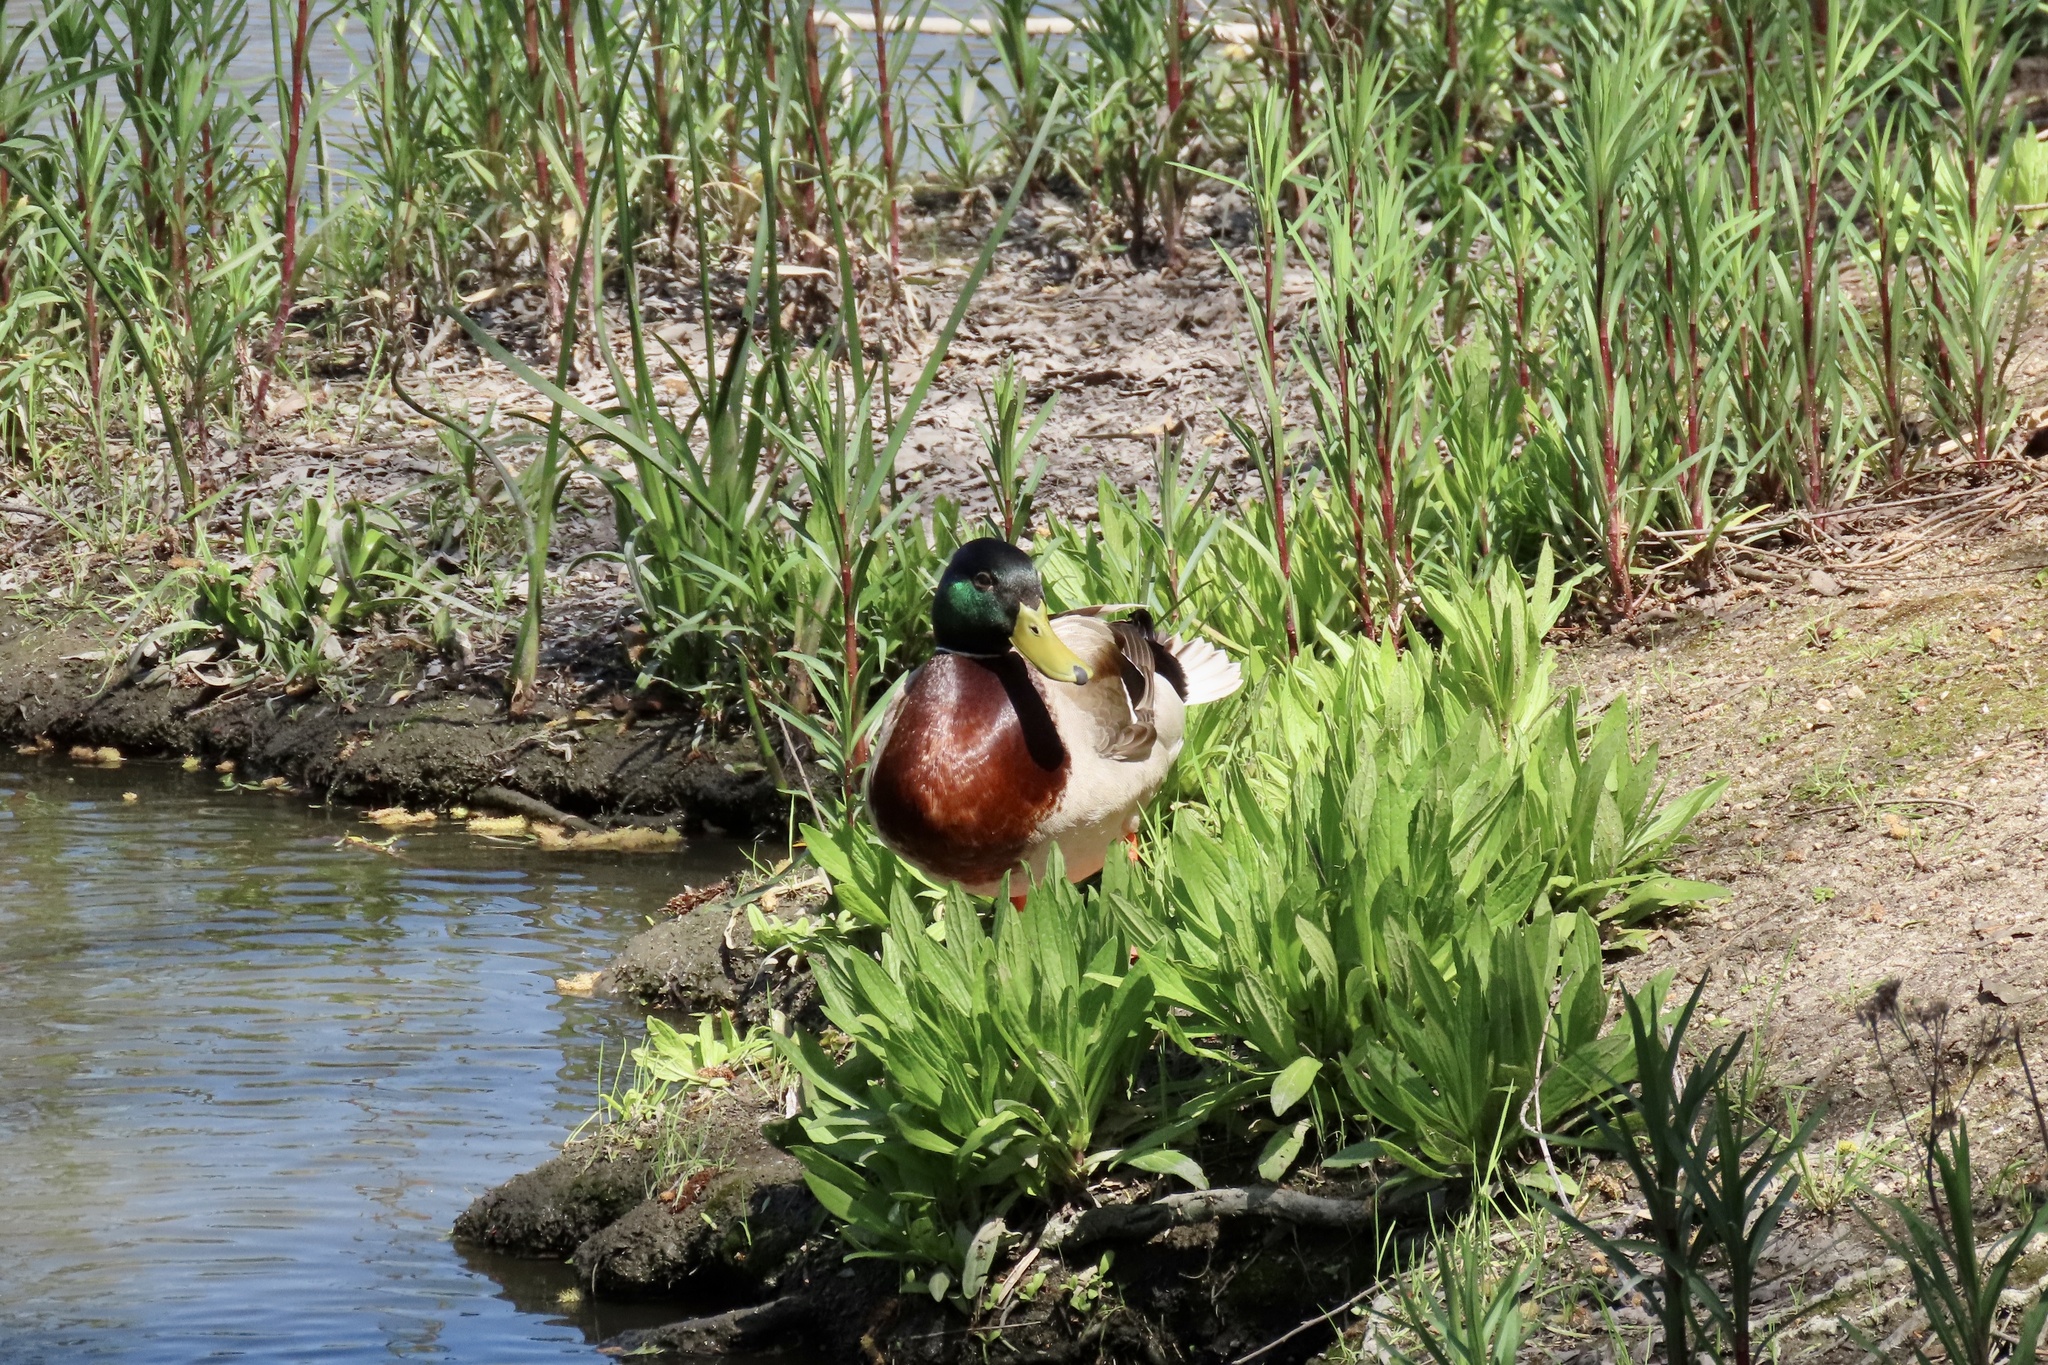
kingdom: Animalia
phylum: Chordata
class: Aves
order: Anseriformes
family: Anatidae
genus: Anas
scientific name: Anas platyrhynchos
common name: Mallard
